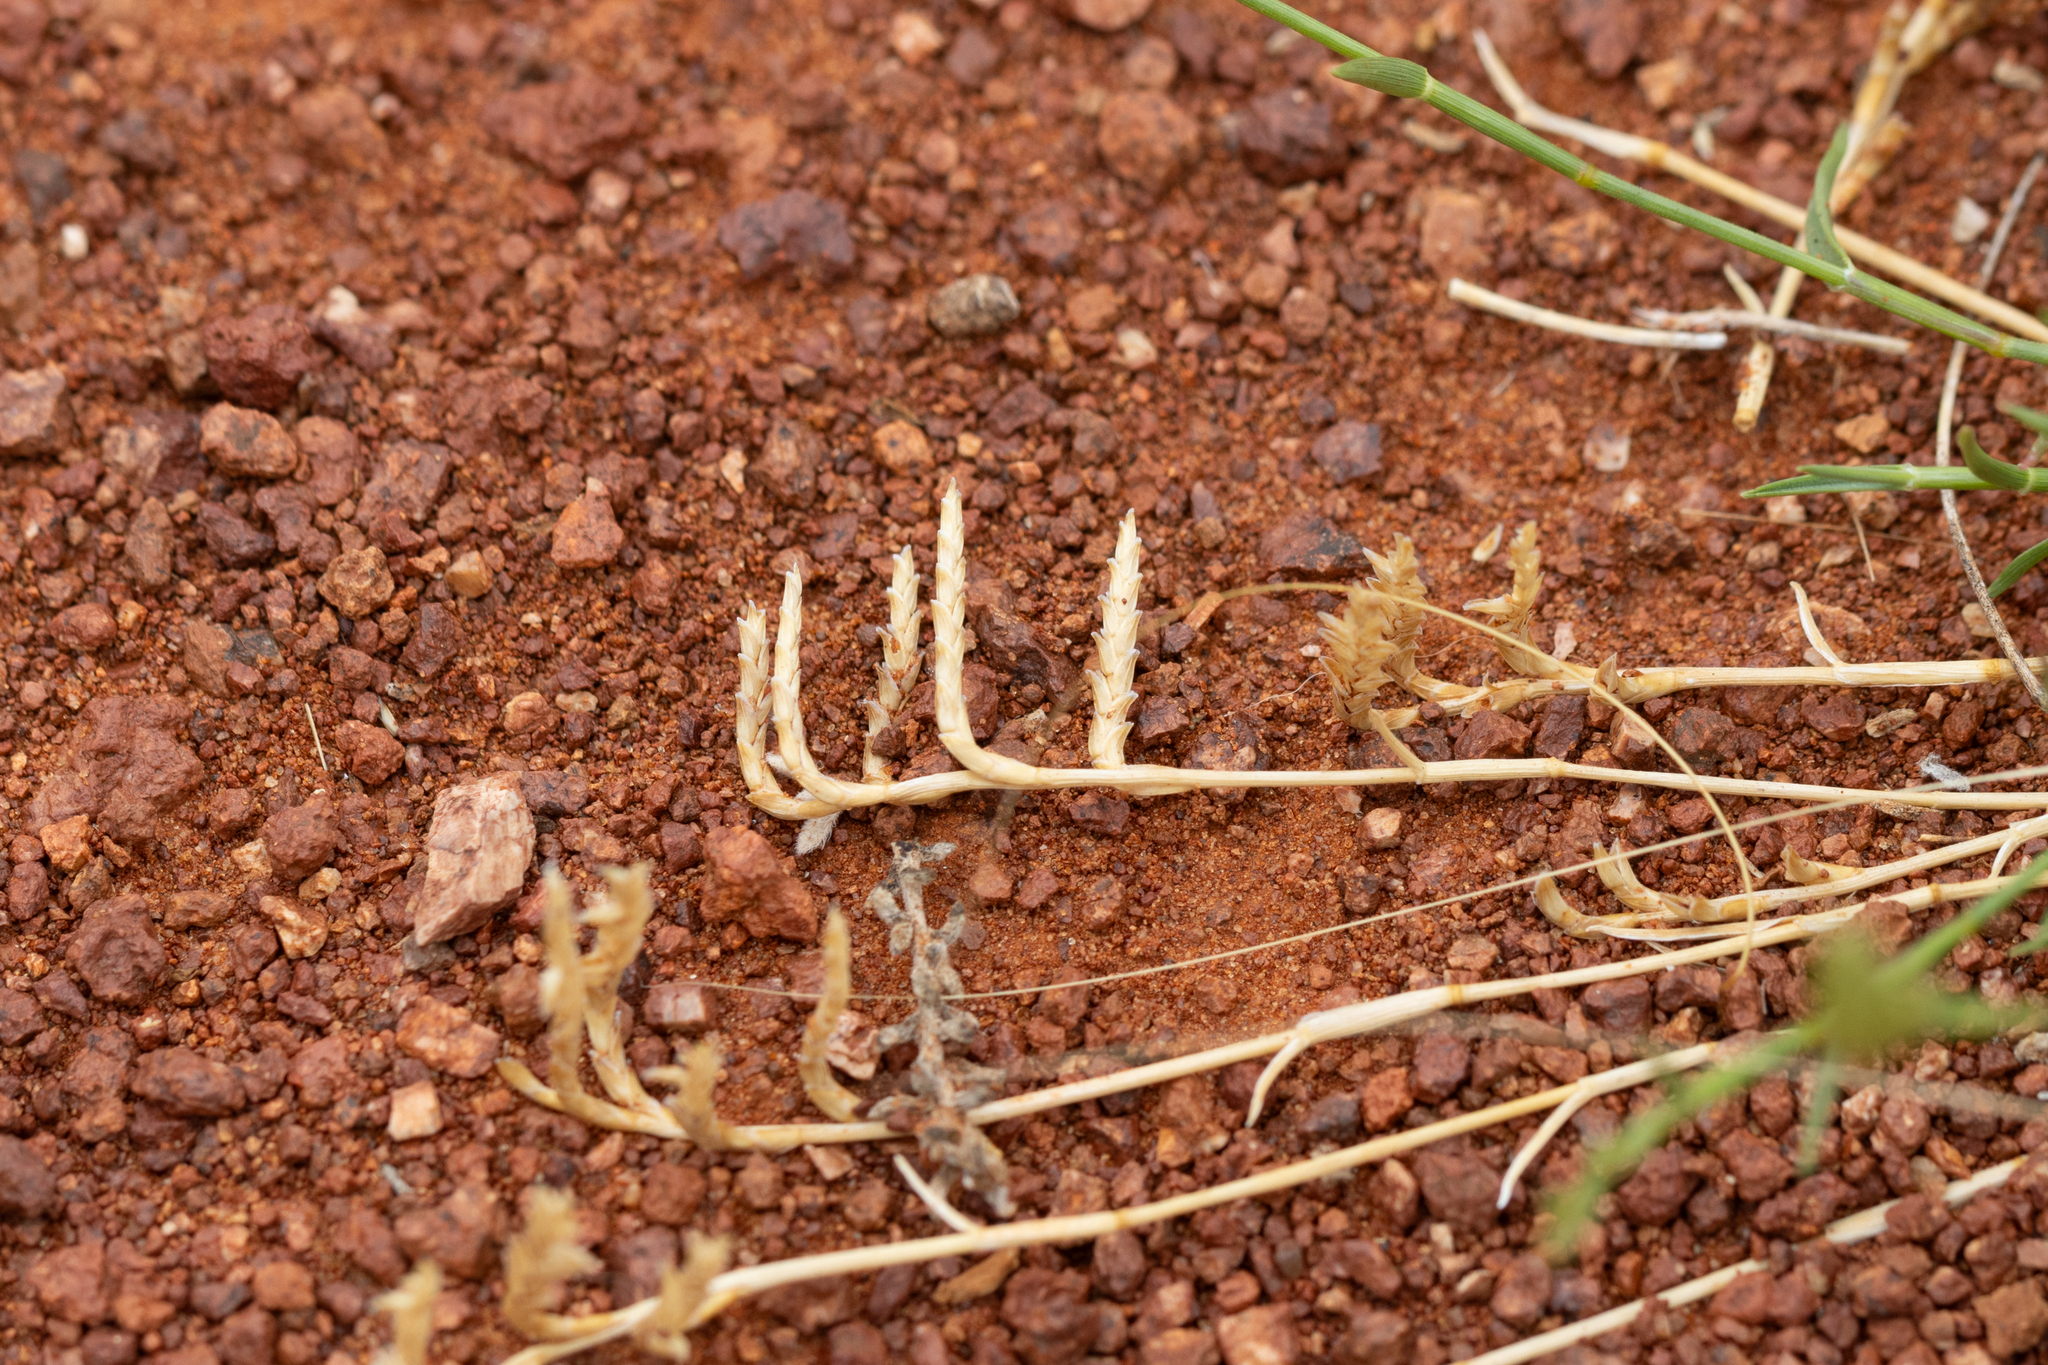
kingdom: Plantae
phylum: Tracheophyta
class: Liliopsida
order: Poales
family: Poaceae
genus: Eragrostis
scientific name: Eragrostis dielsii
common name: Lovegrass
